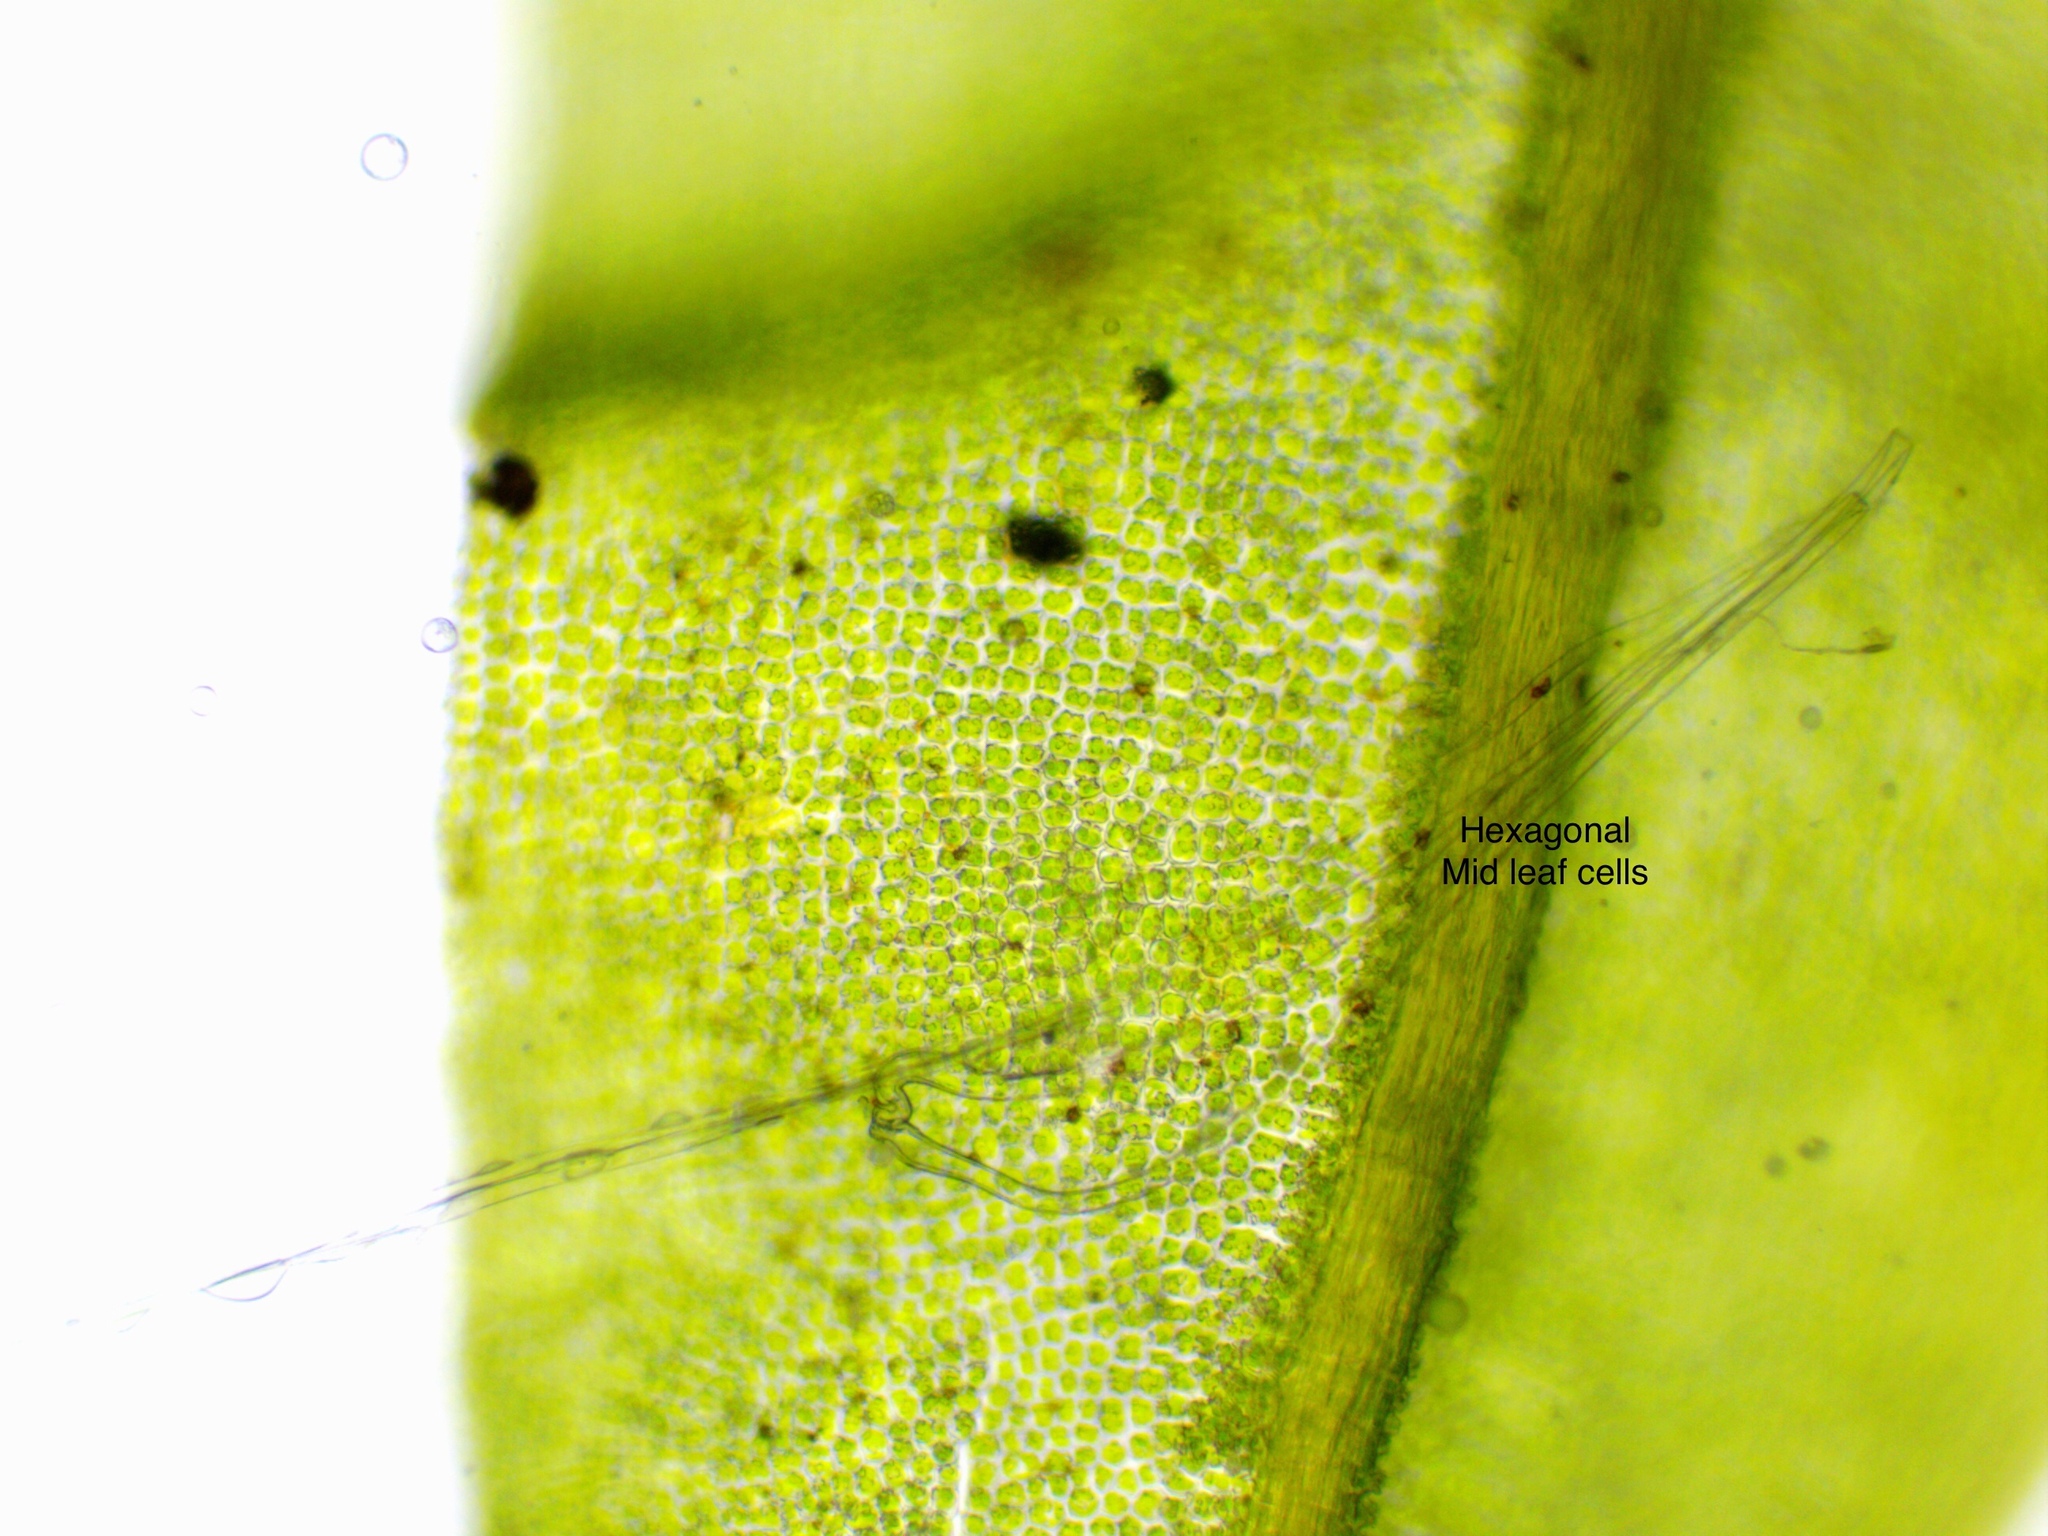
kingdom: Plantae
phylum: Bryophyta
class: Bryopsida
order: Encalyptales
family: Encalyptaceae
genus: Encalypta
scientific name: Encalypta streptocarpa
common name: Spiral extinguisher-moss
